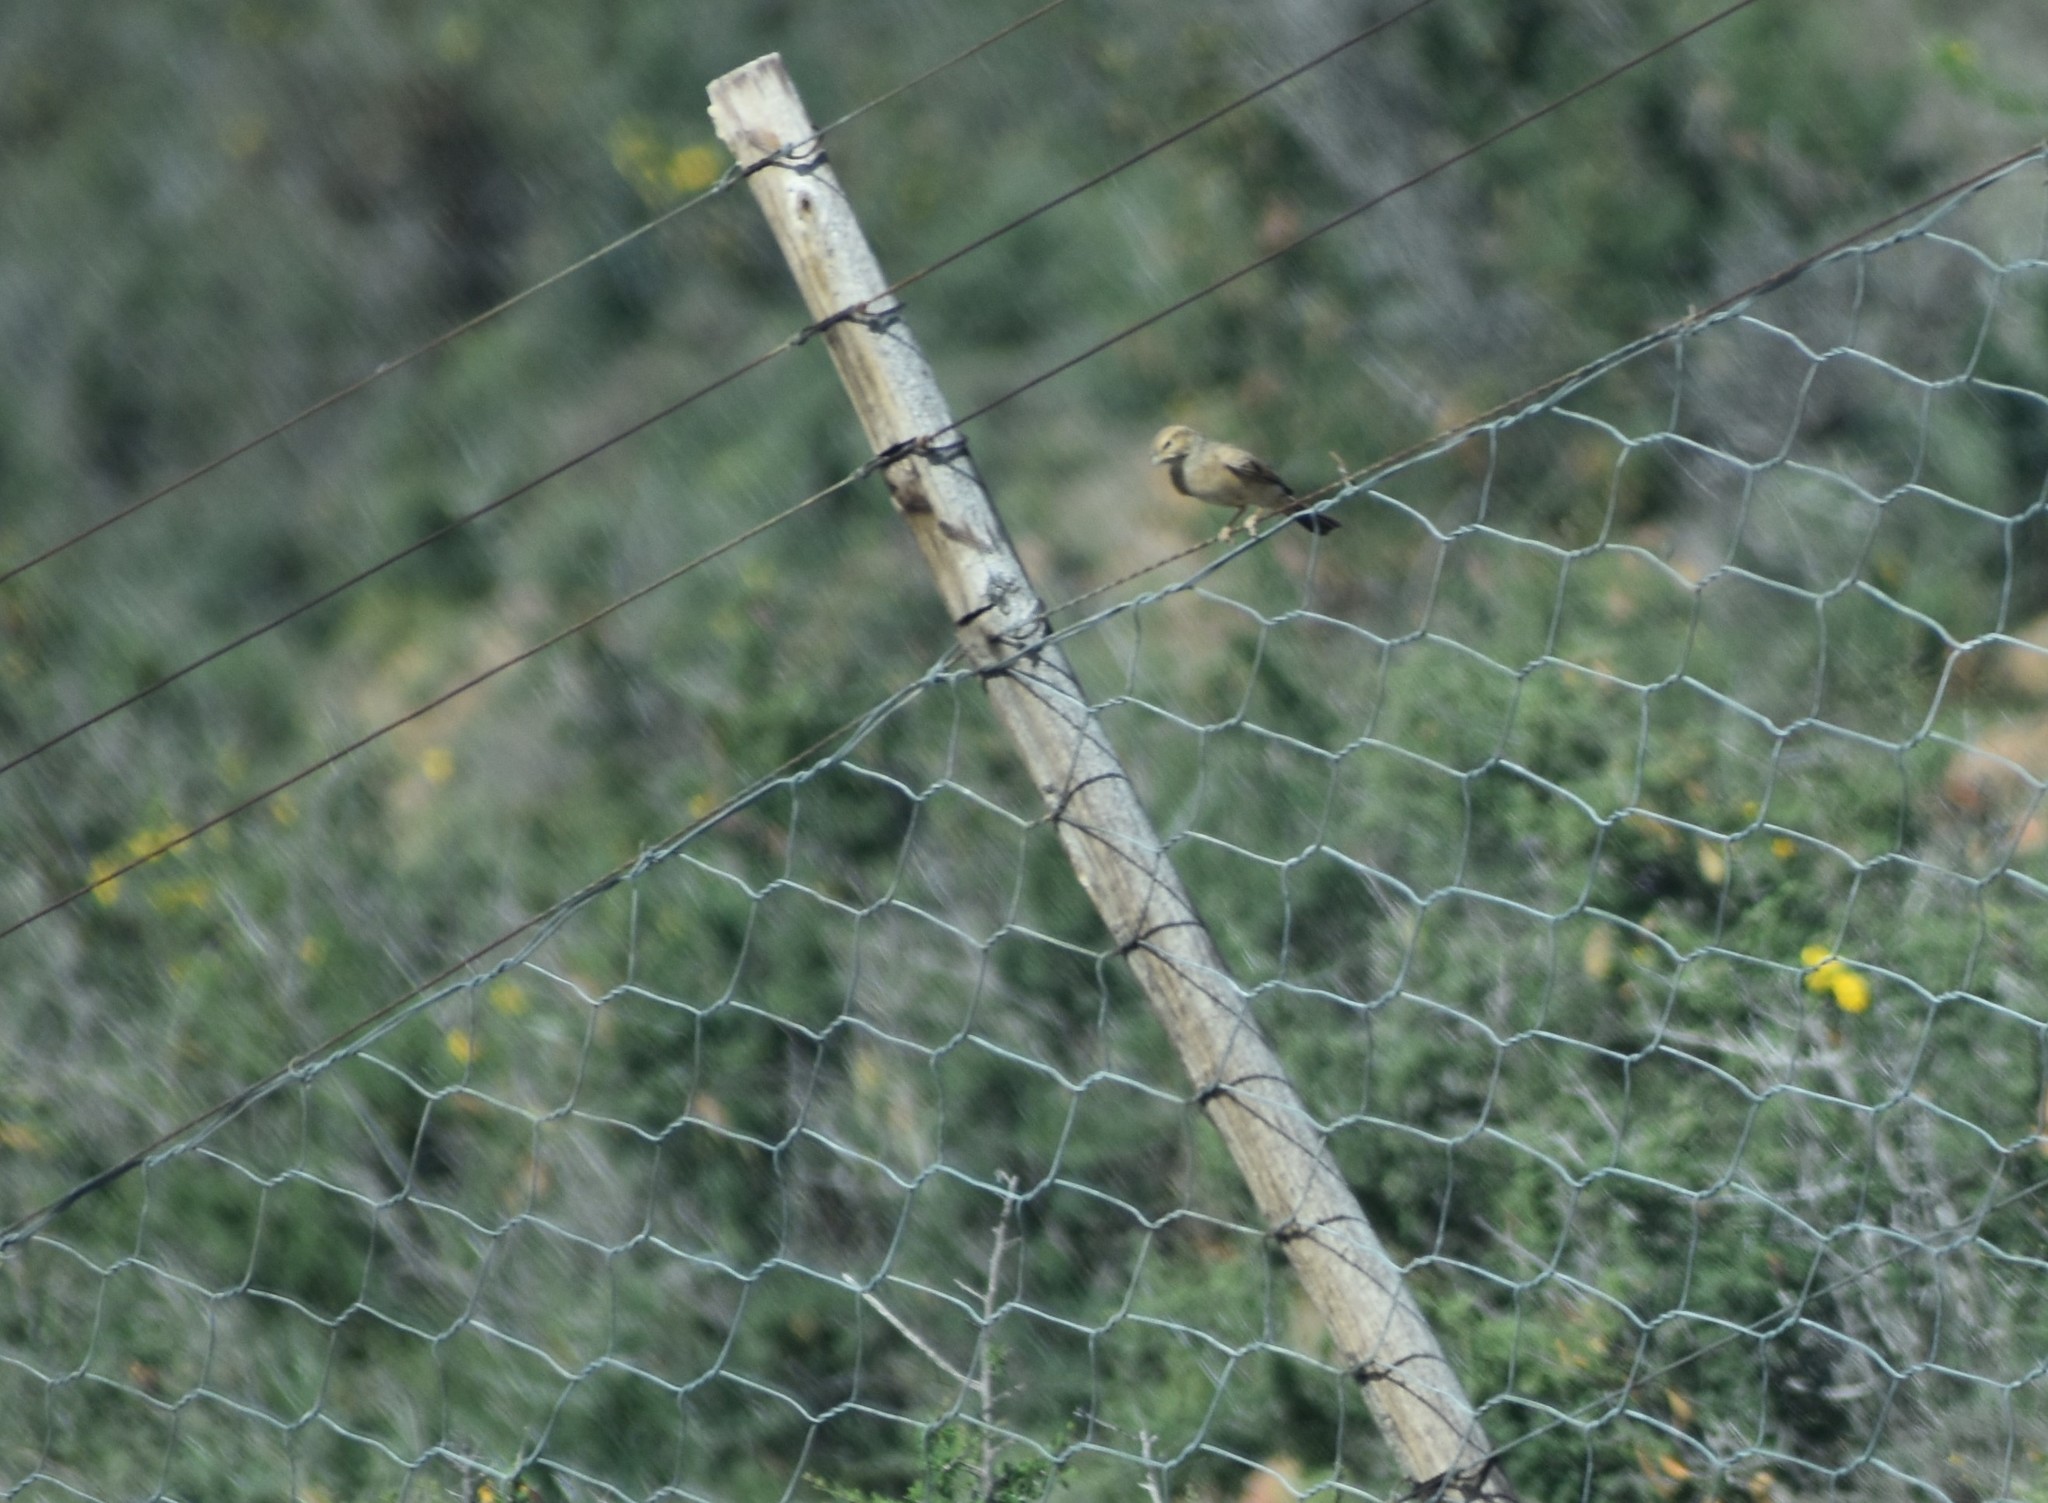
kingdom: Animalia
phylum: Chordata
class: Aves
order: Passeriformes
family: Emberizidae
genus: Emberiza
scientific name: Emberiza impetuani
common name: Lark-like bunting
